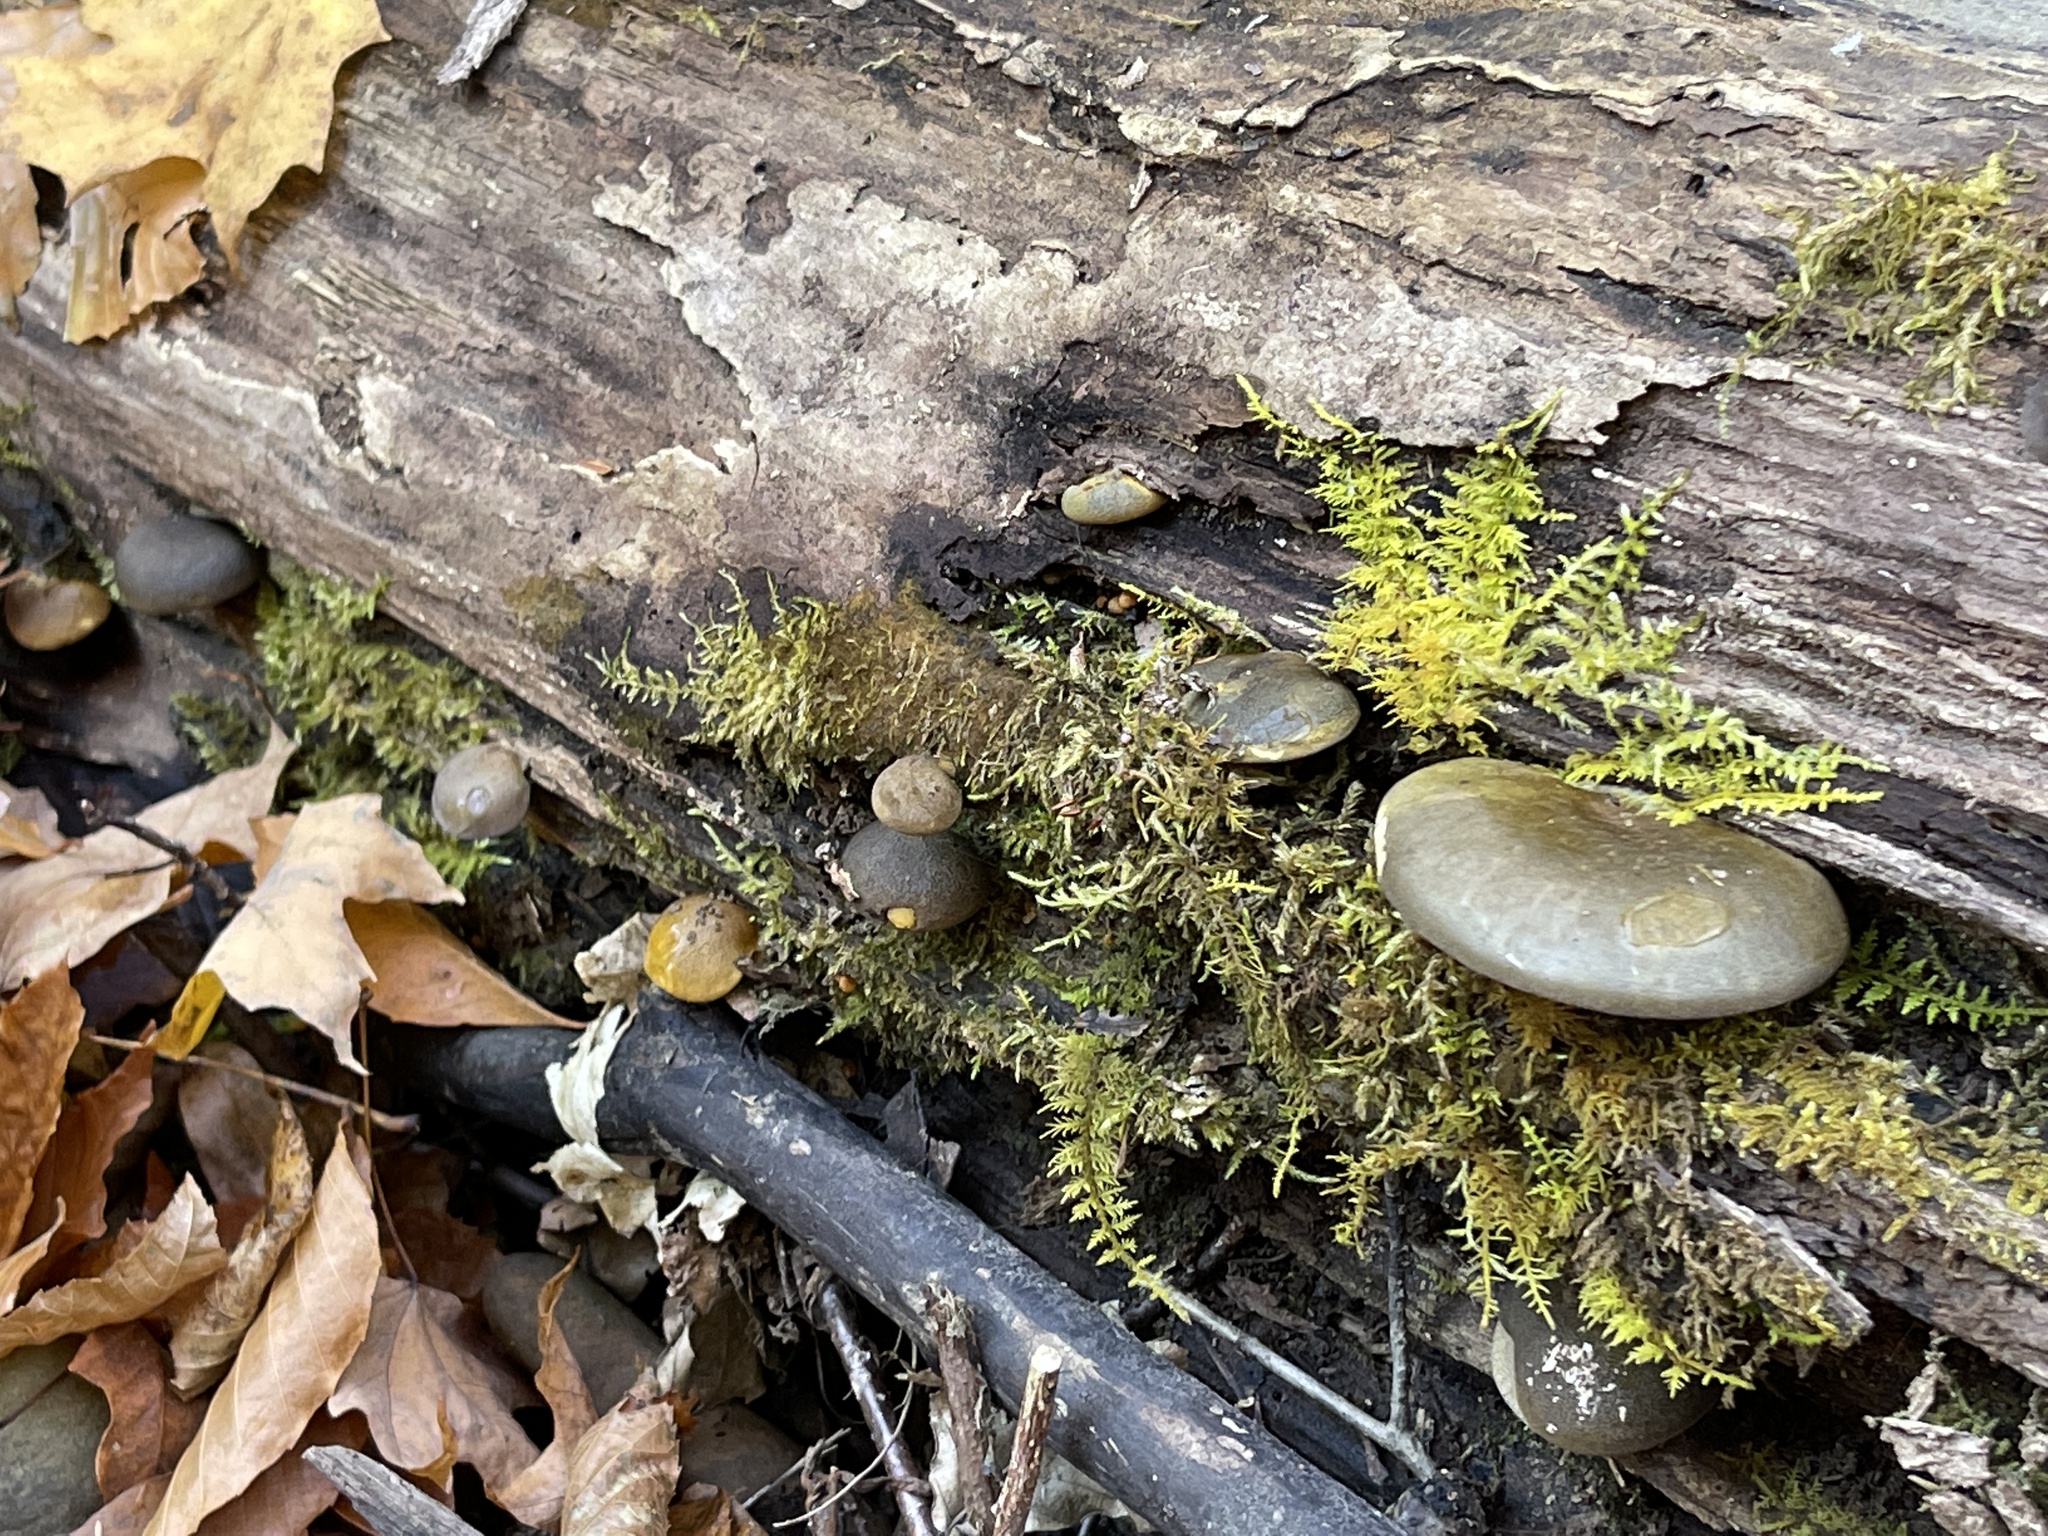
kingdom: Fungi
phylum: Basidiomycota
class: Agaricomycetes
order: Agaricales
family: Sarcomyxaceae
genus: Sarcomyxa
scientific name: Sarcomyxa serotina
